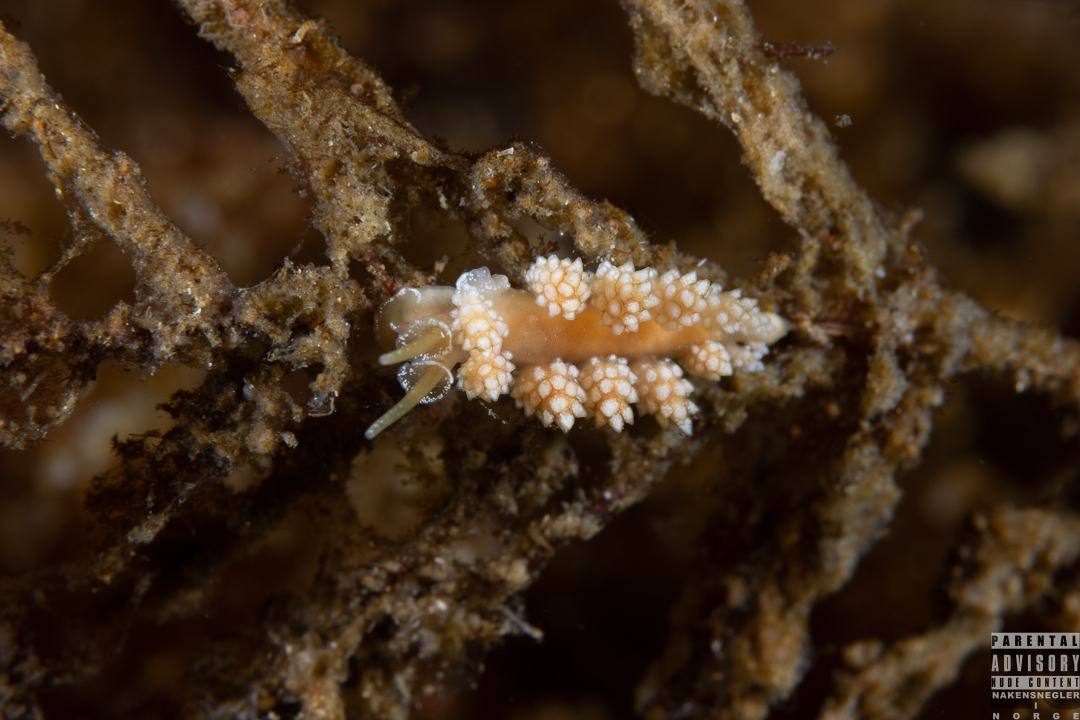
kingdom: Animalia
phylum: Mollusca
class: Gastropoda
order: Nudibranchia
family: Dotidae
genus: Doto
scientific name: Doto fragilis
